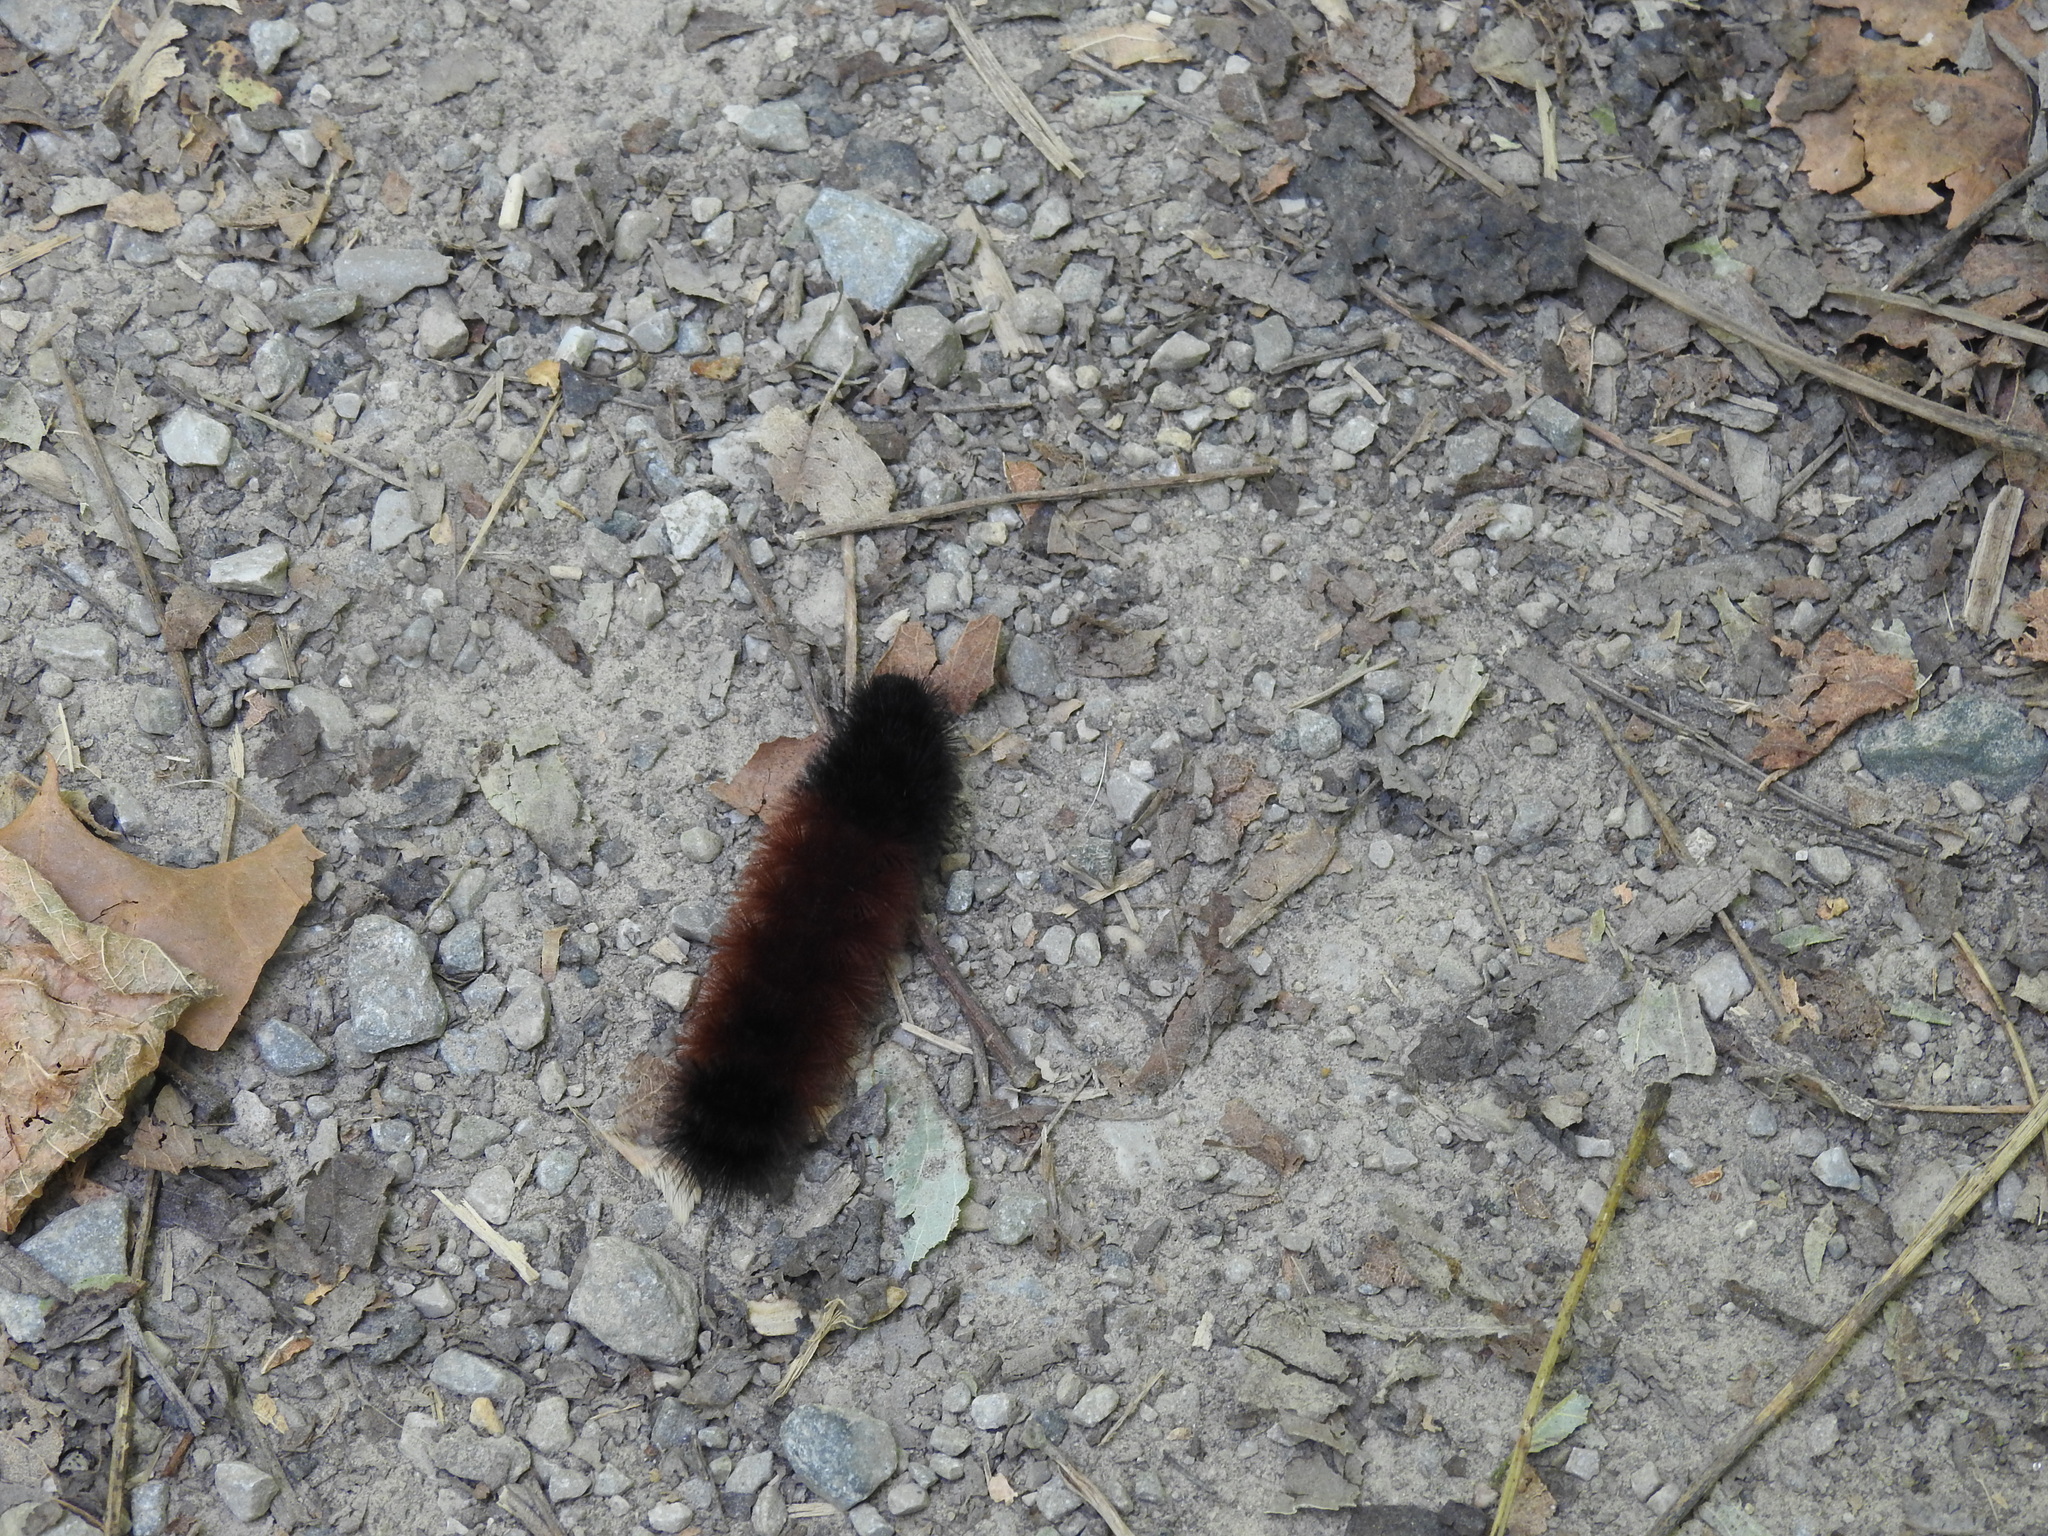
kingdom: Animalia
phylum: Arthropoda
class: Insecta
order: Lepidoptera
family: Erebidae
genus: Pyrrharctia
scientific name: Pyrrharctia isabella
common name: Isabella tiger moth
